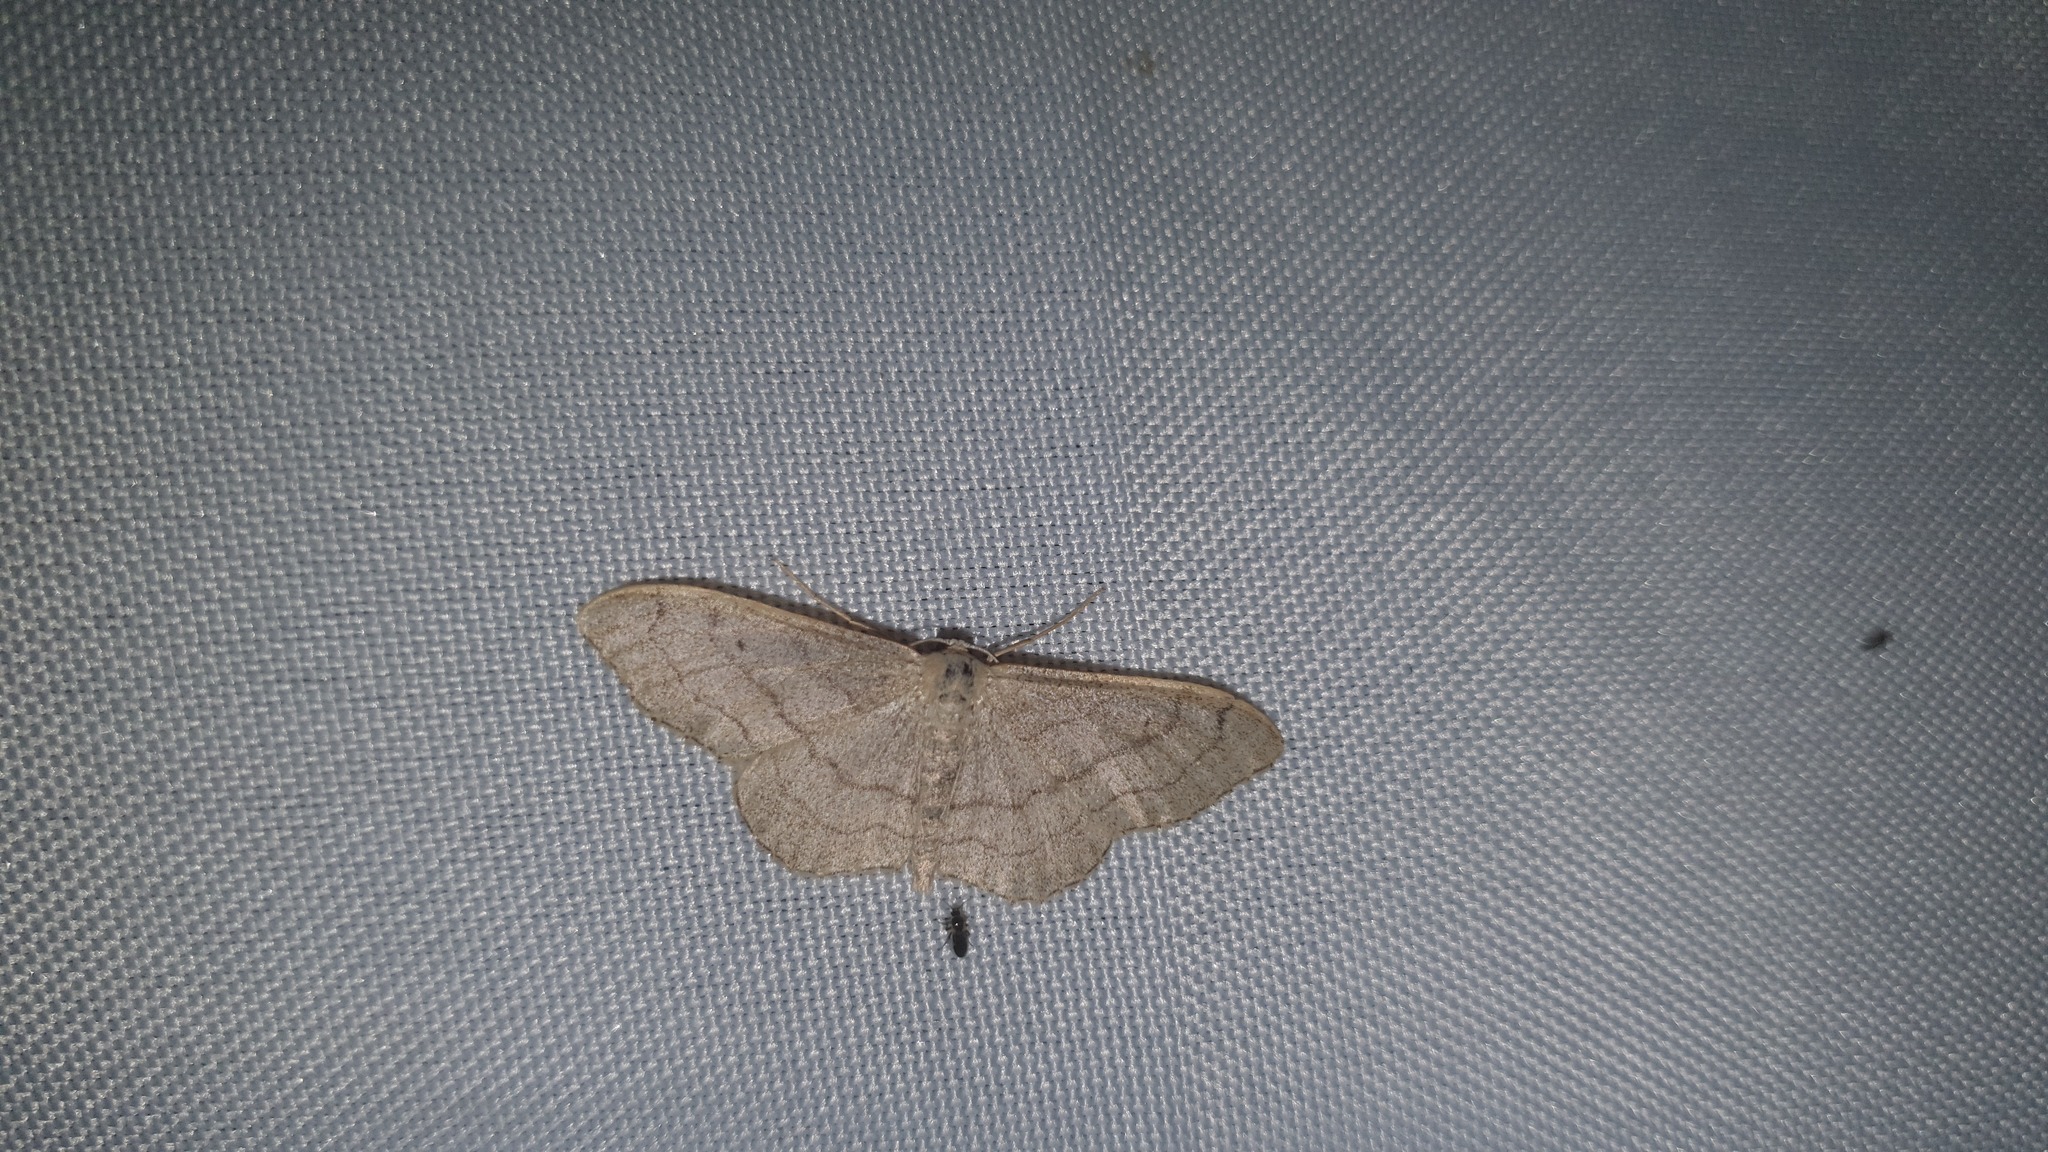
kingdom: Animalia
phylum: Arthropoda
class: Insecta
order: Lepidoptera
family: Geometridae
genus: Idaea
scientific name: Idaea aversata
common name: Riband wave
